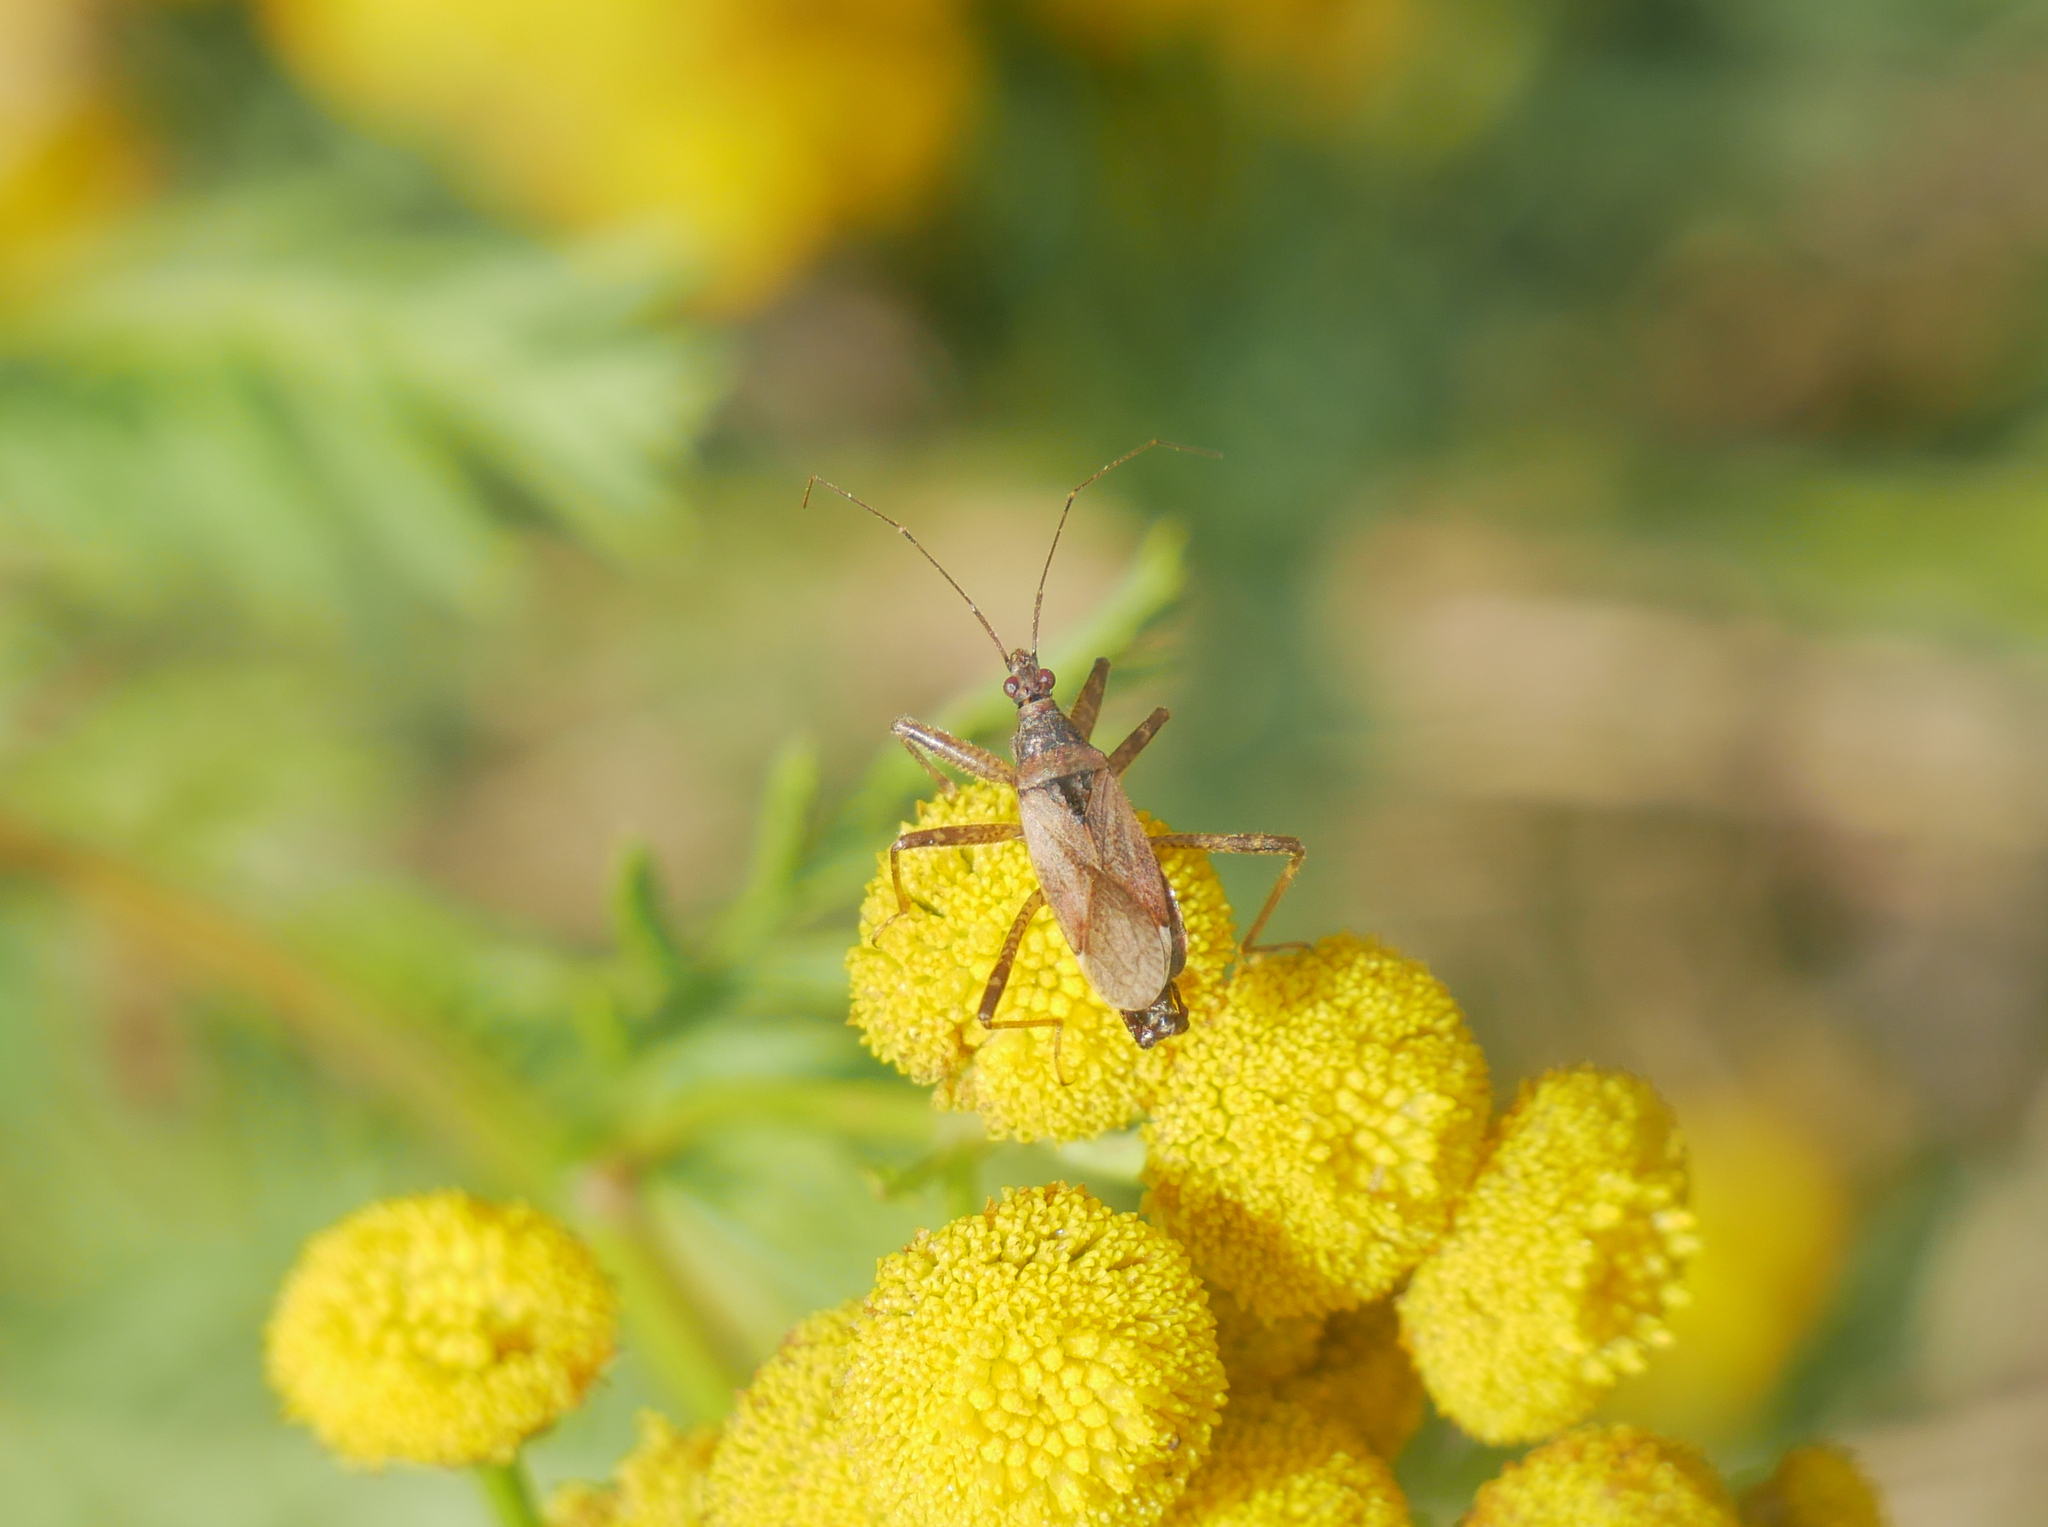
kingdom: Animalia
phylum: Arthropoda
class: Insecta
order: Hemiptera
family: Nabidae
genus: Himacerus
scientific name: Himacerus apterus
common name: Tree damsel bug
